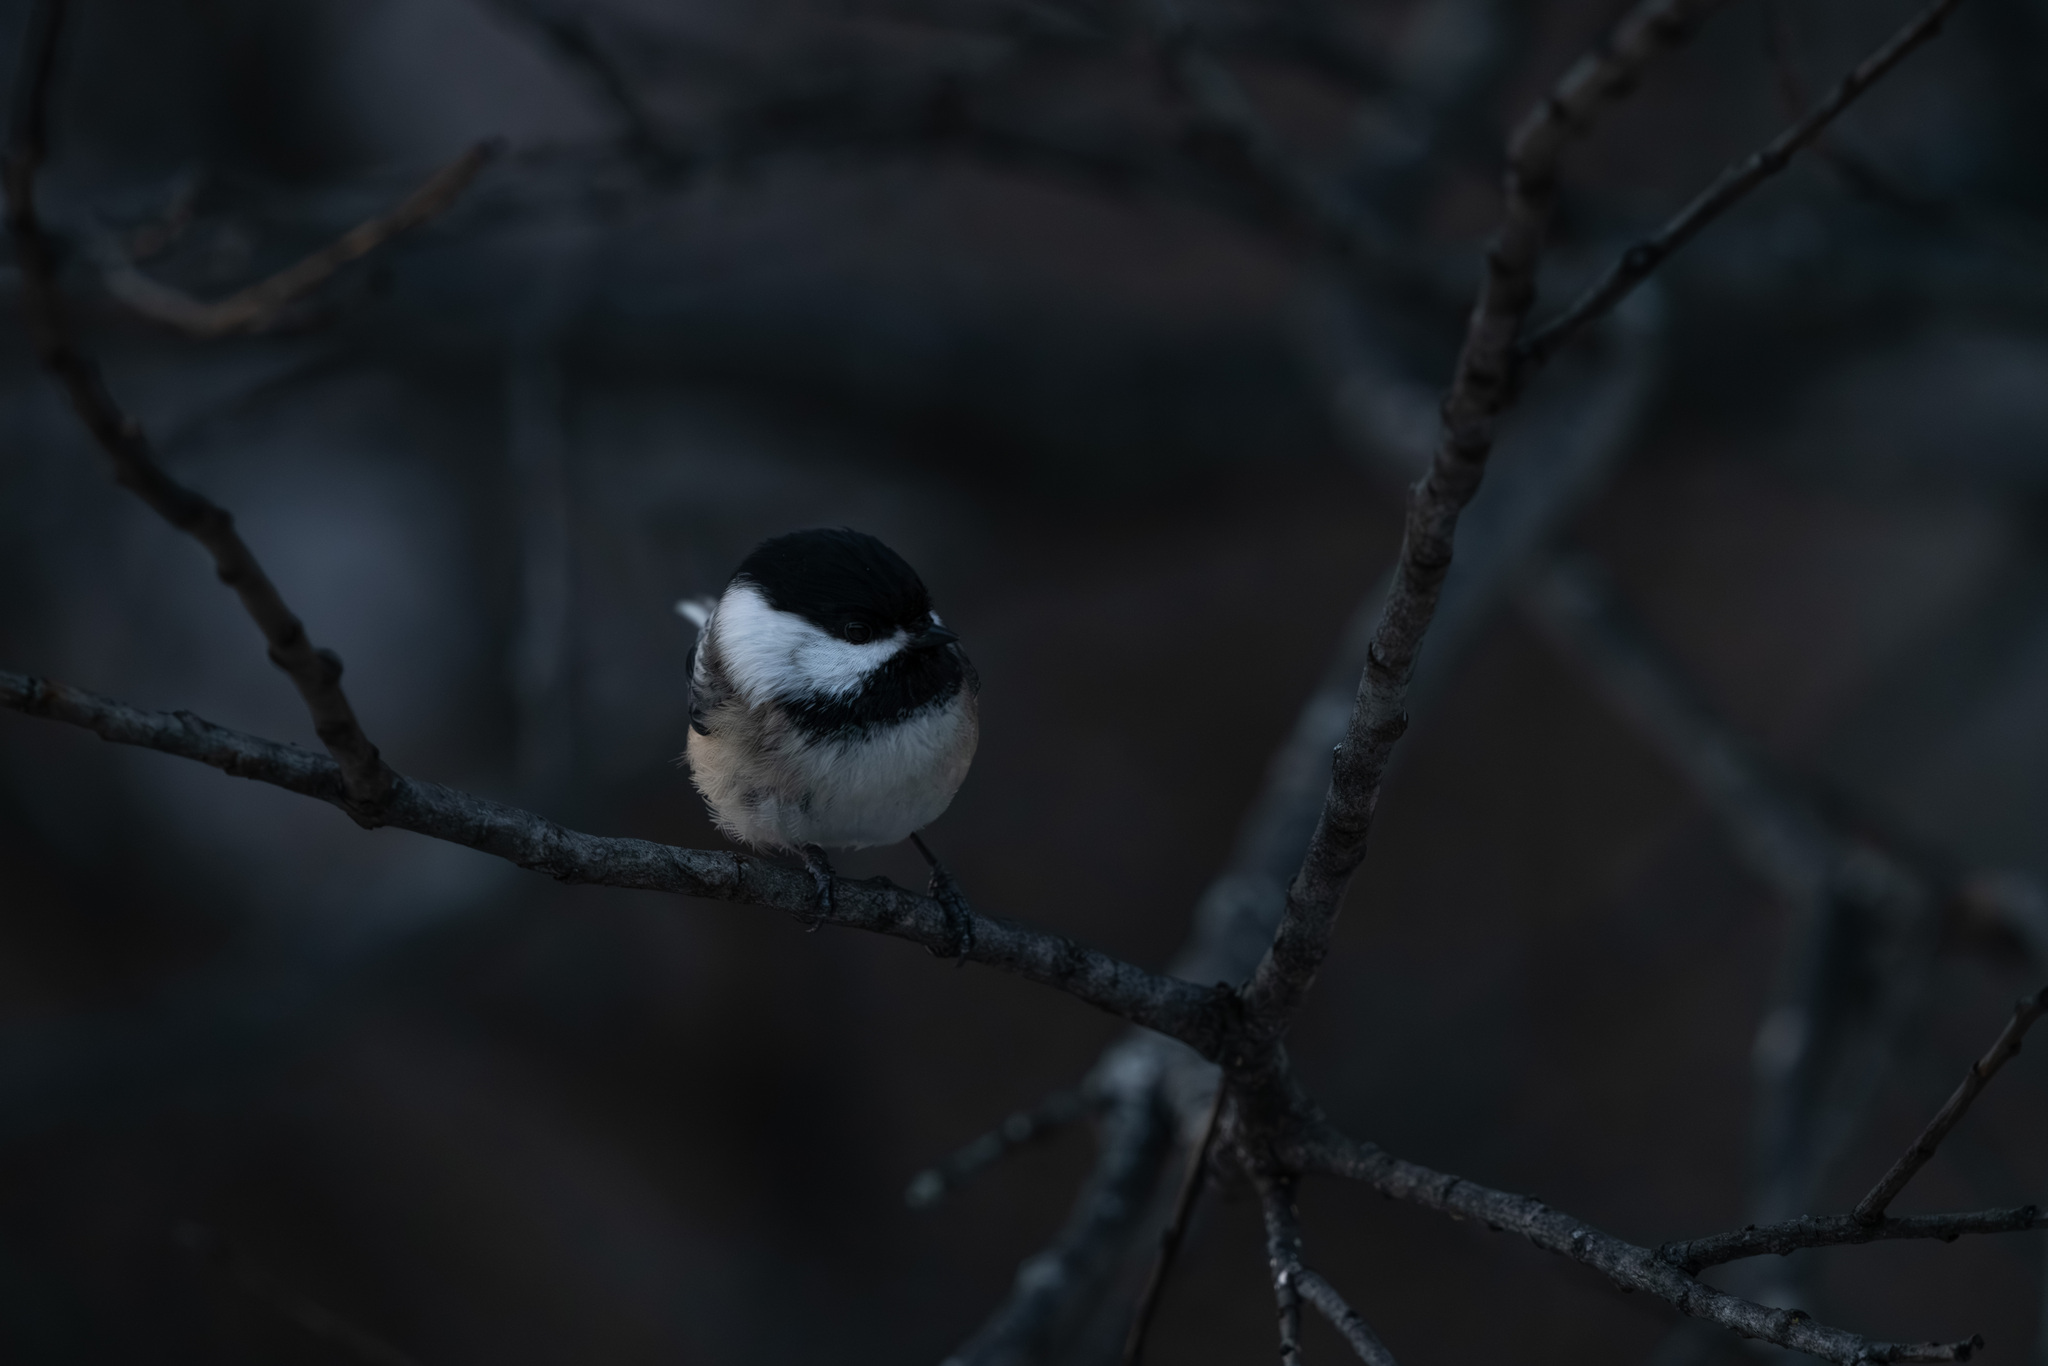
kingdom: Animalia
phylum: Chordata
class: Aves
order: Passeriformes
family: Paridae
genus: Poecile
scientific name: Poecile atricapillus
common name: Black-capped chickadee
